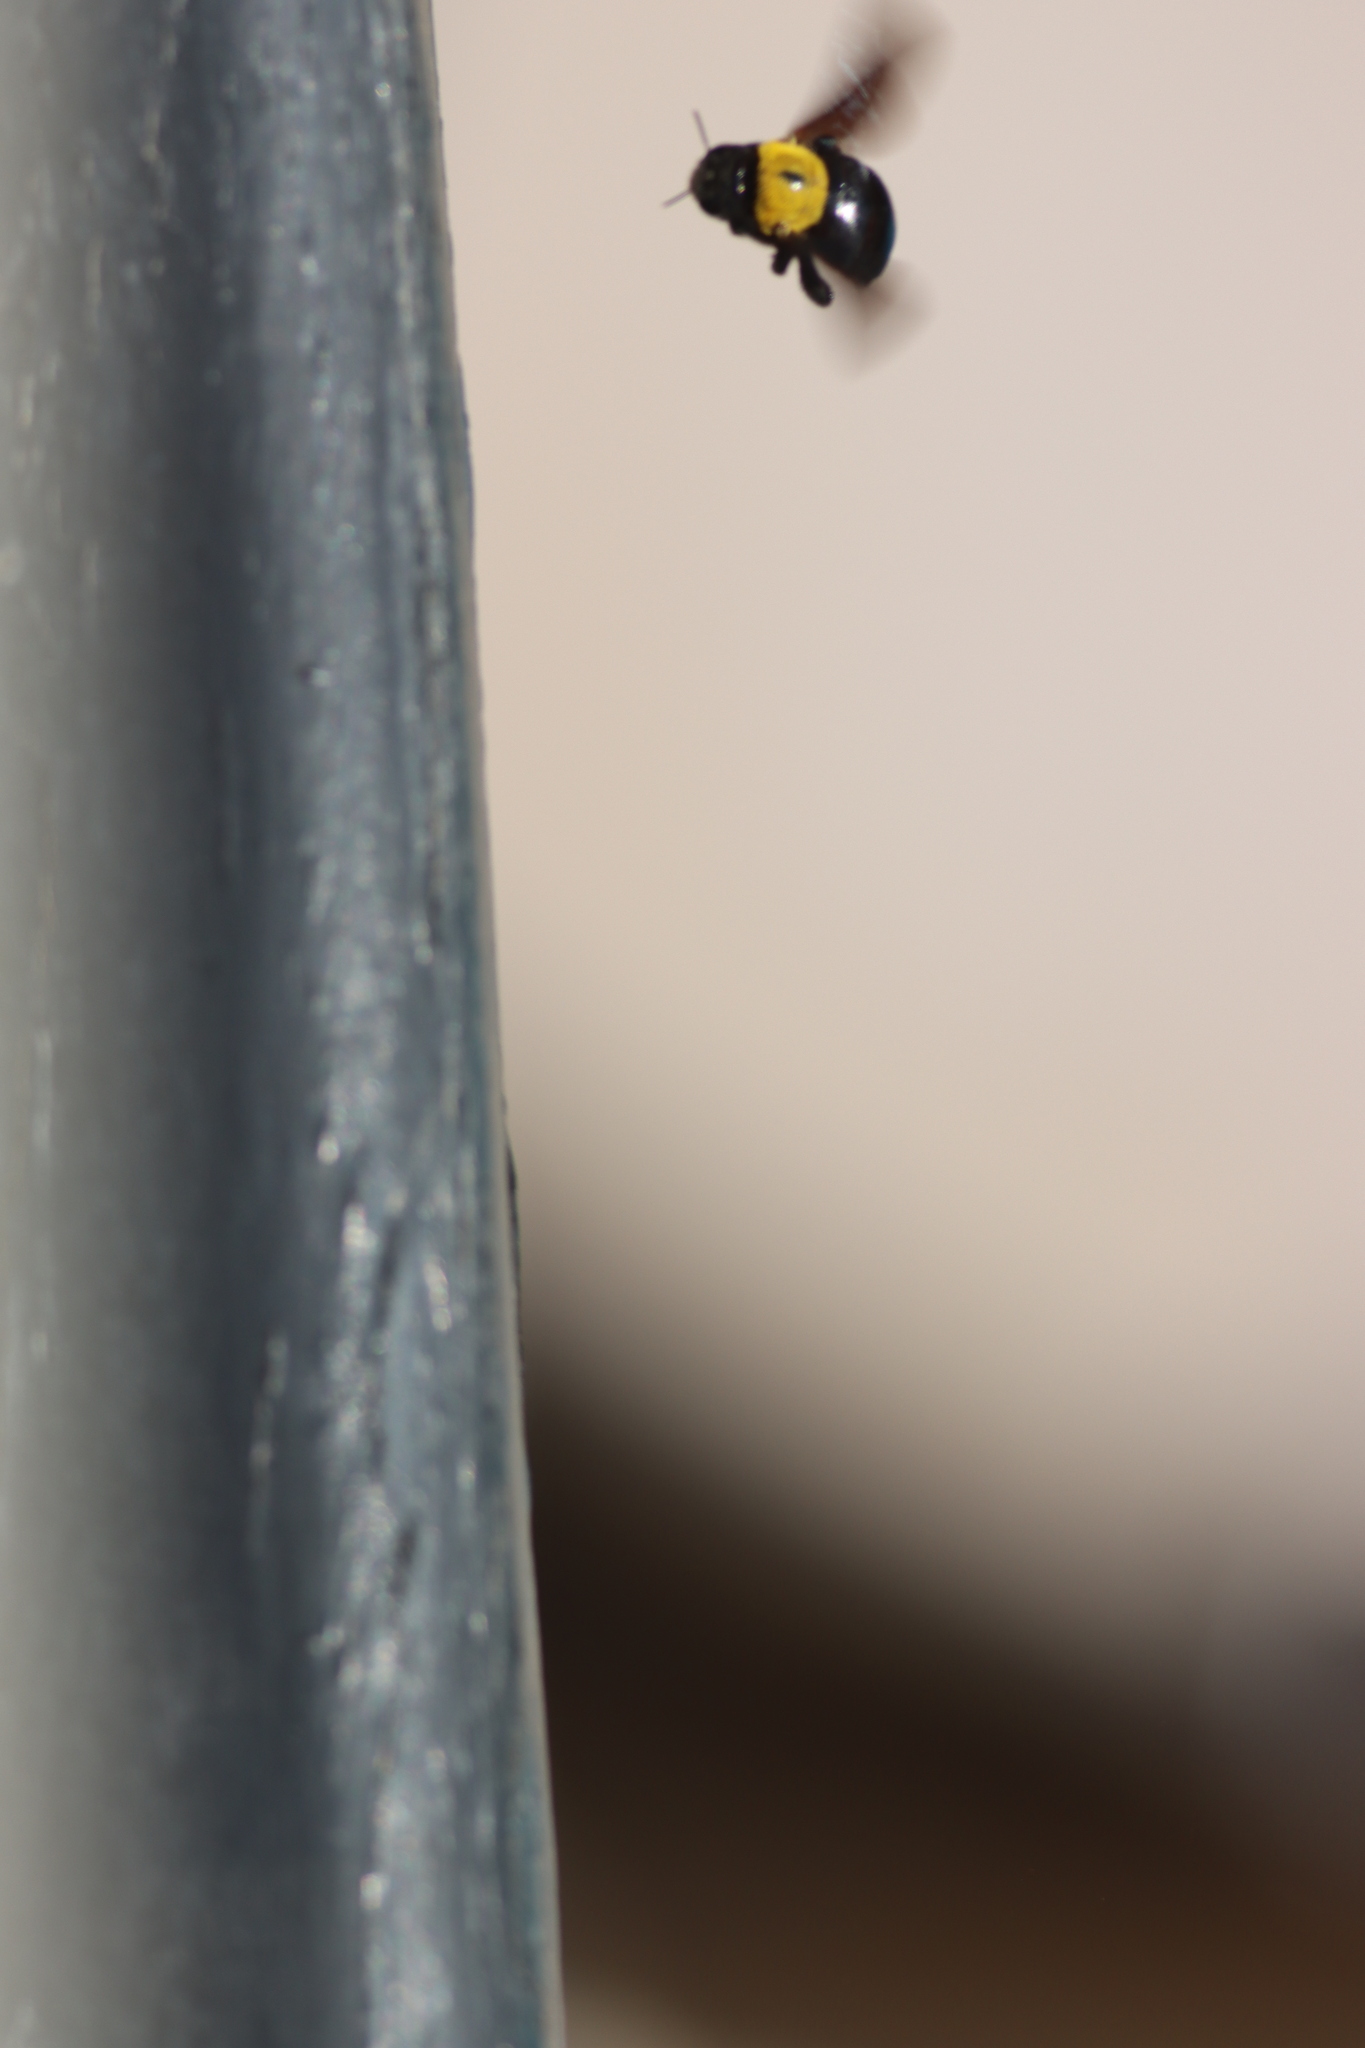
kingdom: Animalia
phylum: Arthropoda
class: Insecta
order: Hymenoptera
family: Apidae
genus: Xylocopa
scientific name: Xylocopa pubescens
